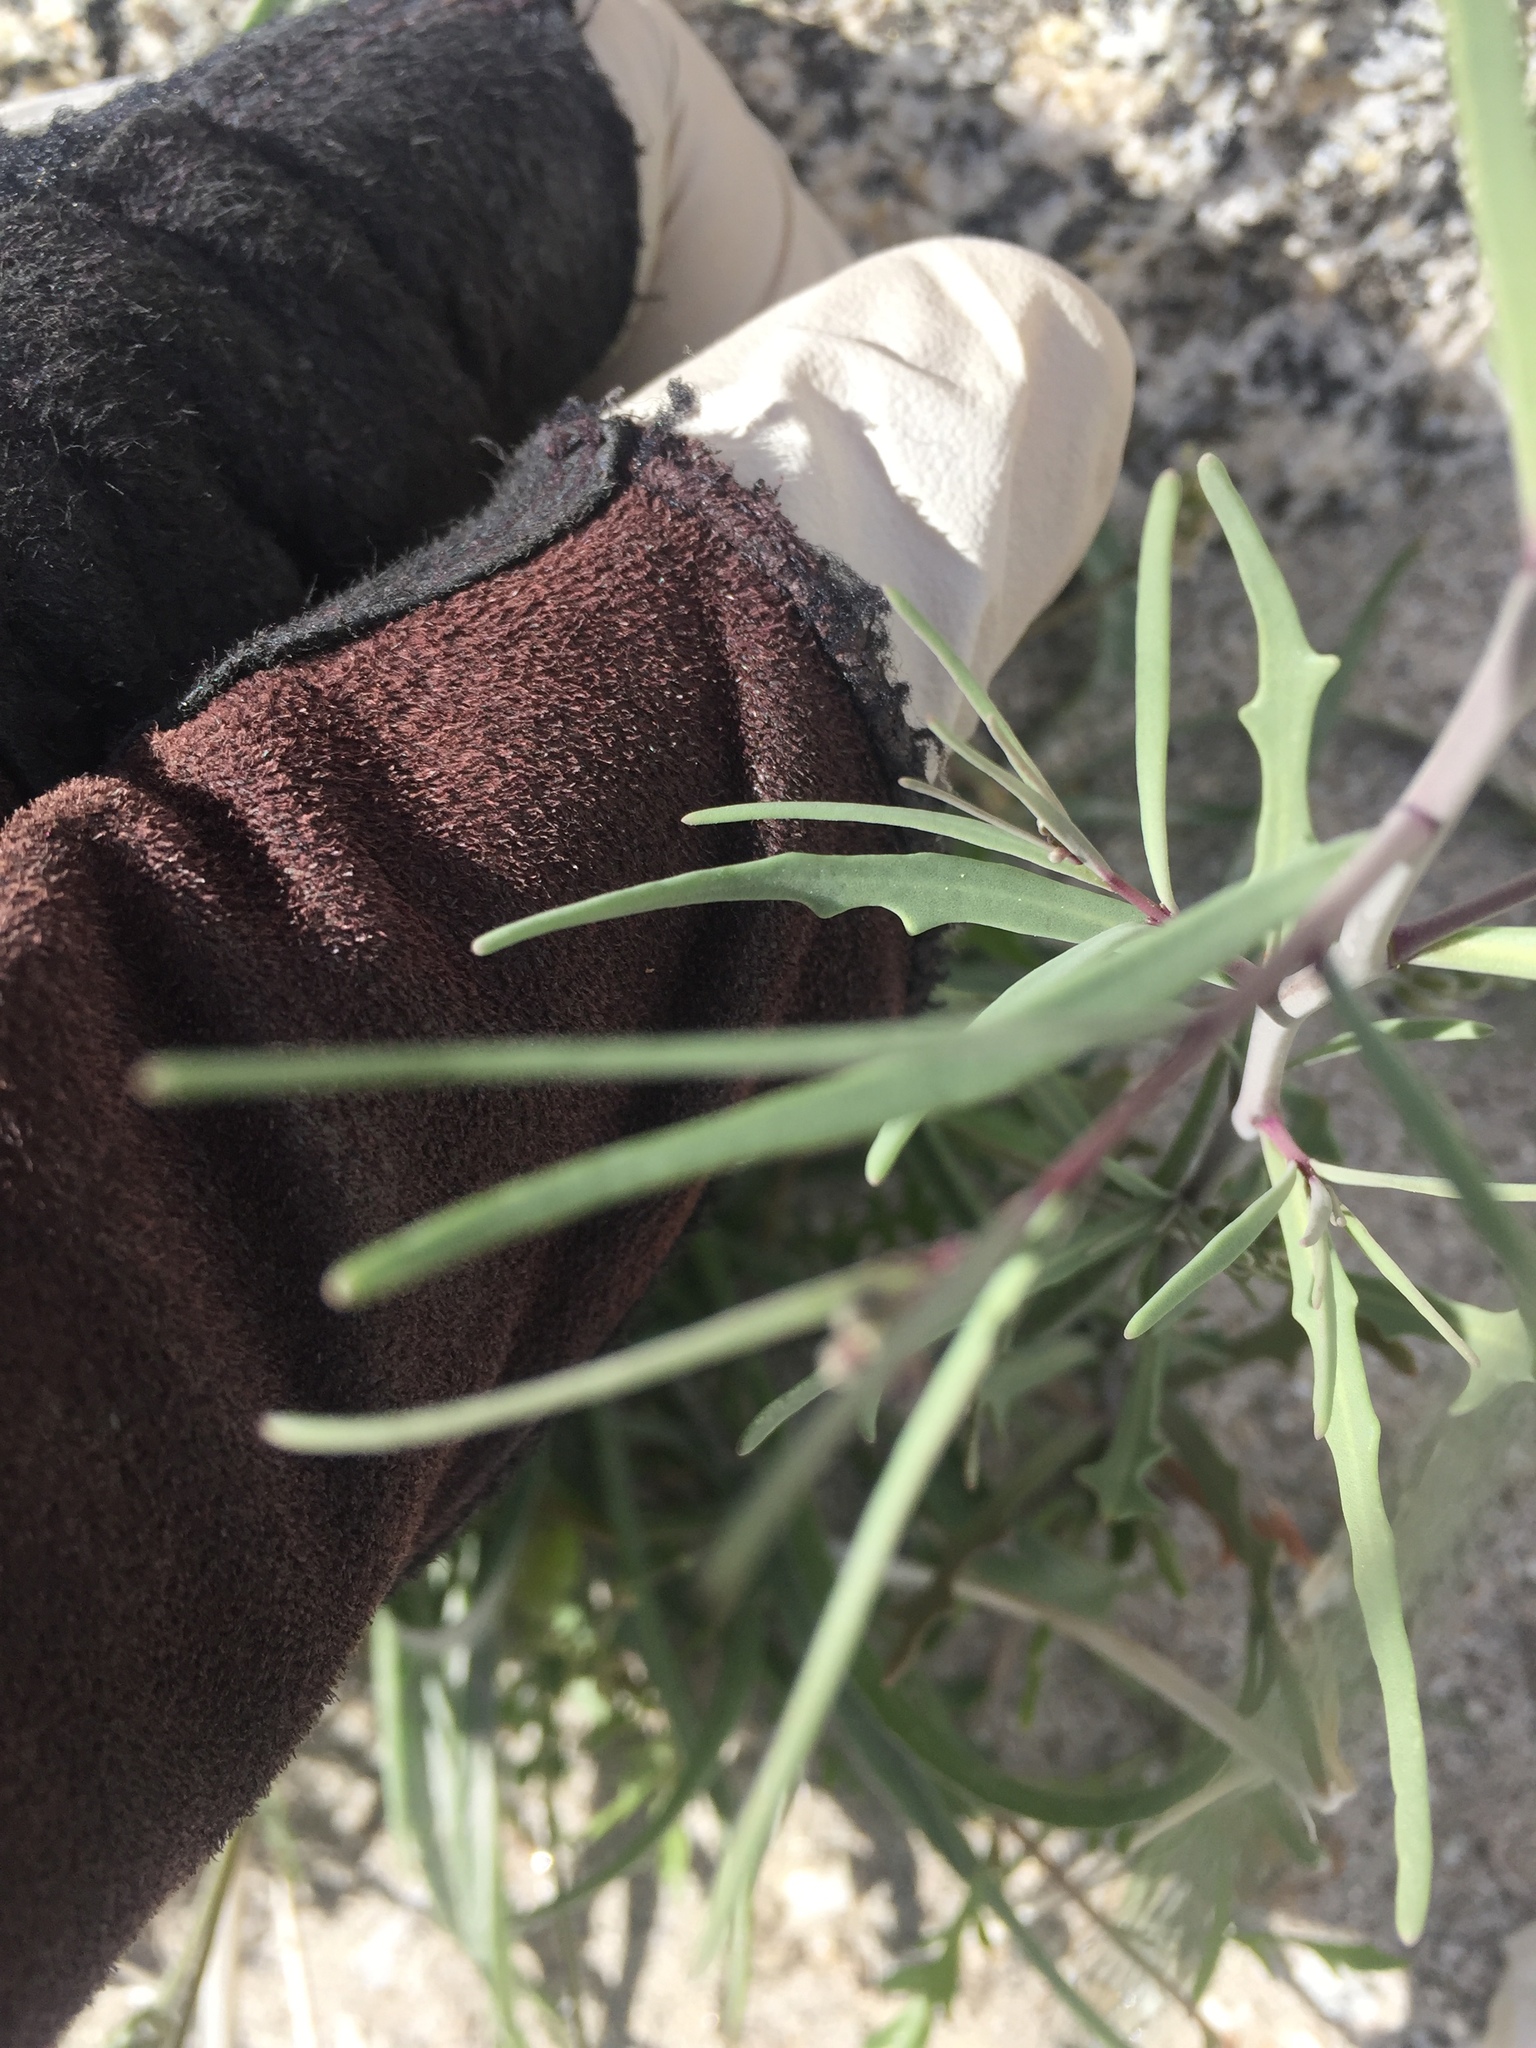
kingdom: Plantae
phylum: Tracheophyta
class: Magnoliopsida
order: Brassicales
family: Brassicaceae
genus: Streptanthus
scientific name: Streptanthus longirostris
